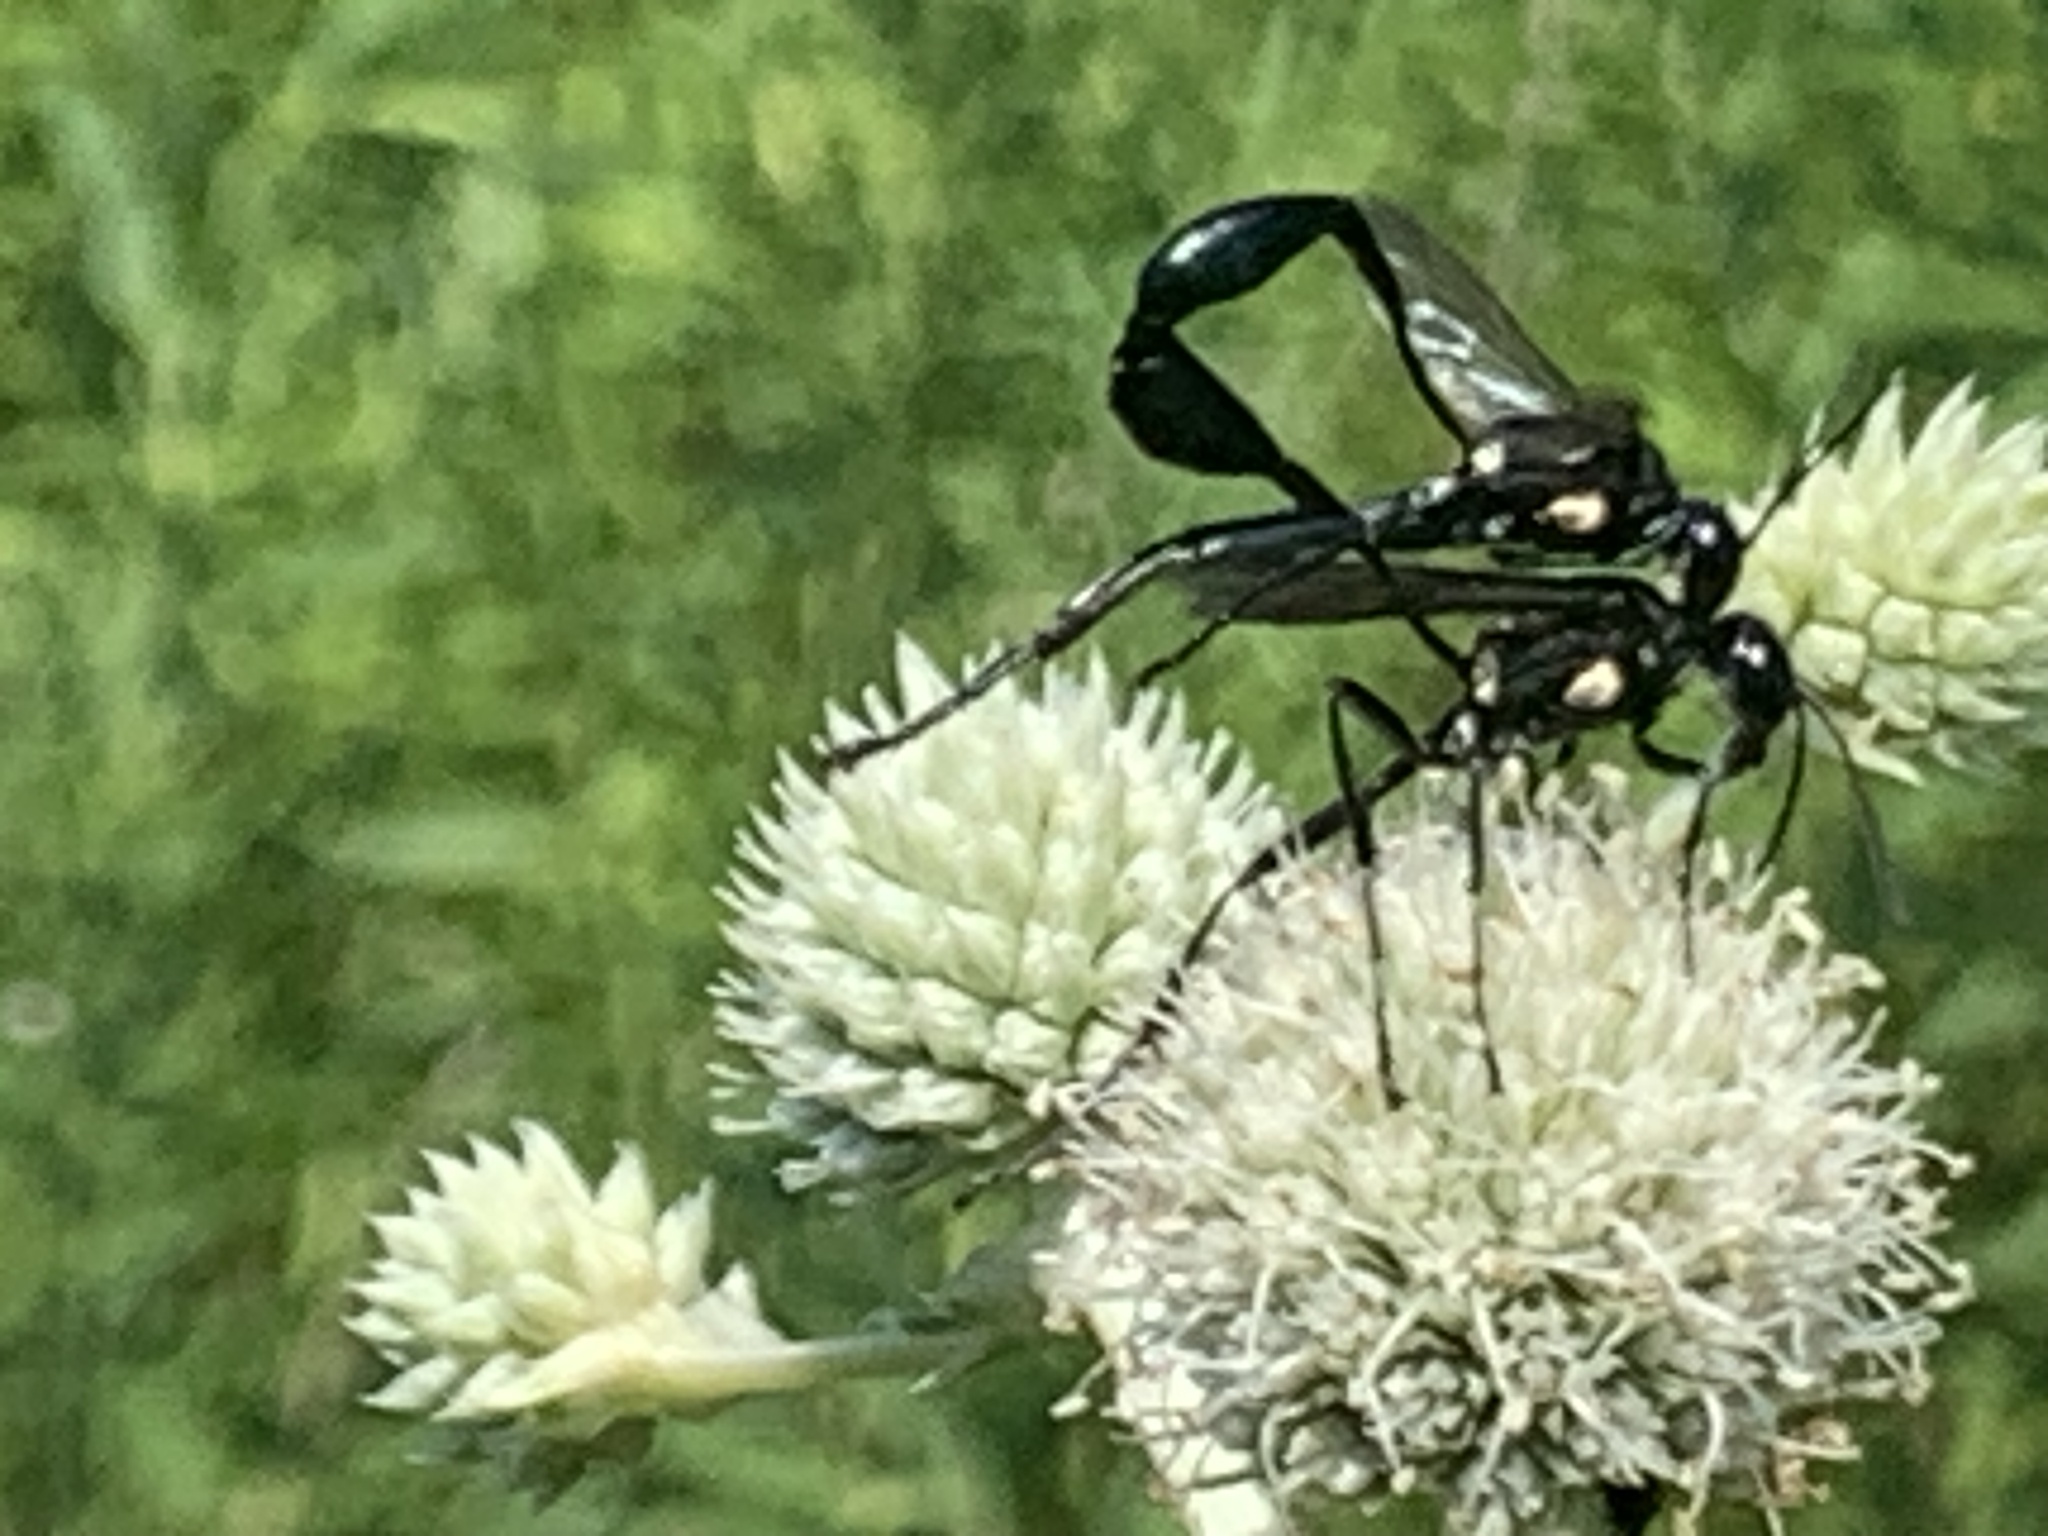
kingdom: Animalia
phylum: Arthropoda
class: Insecta
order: Hymenoptera
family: Sphecidae
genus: Eremnophila
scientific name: Eremnophila aureonotata
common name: Gold-marked thread-waisted wasp
